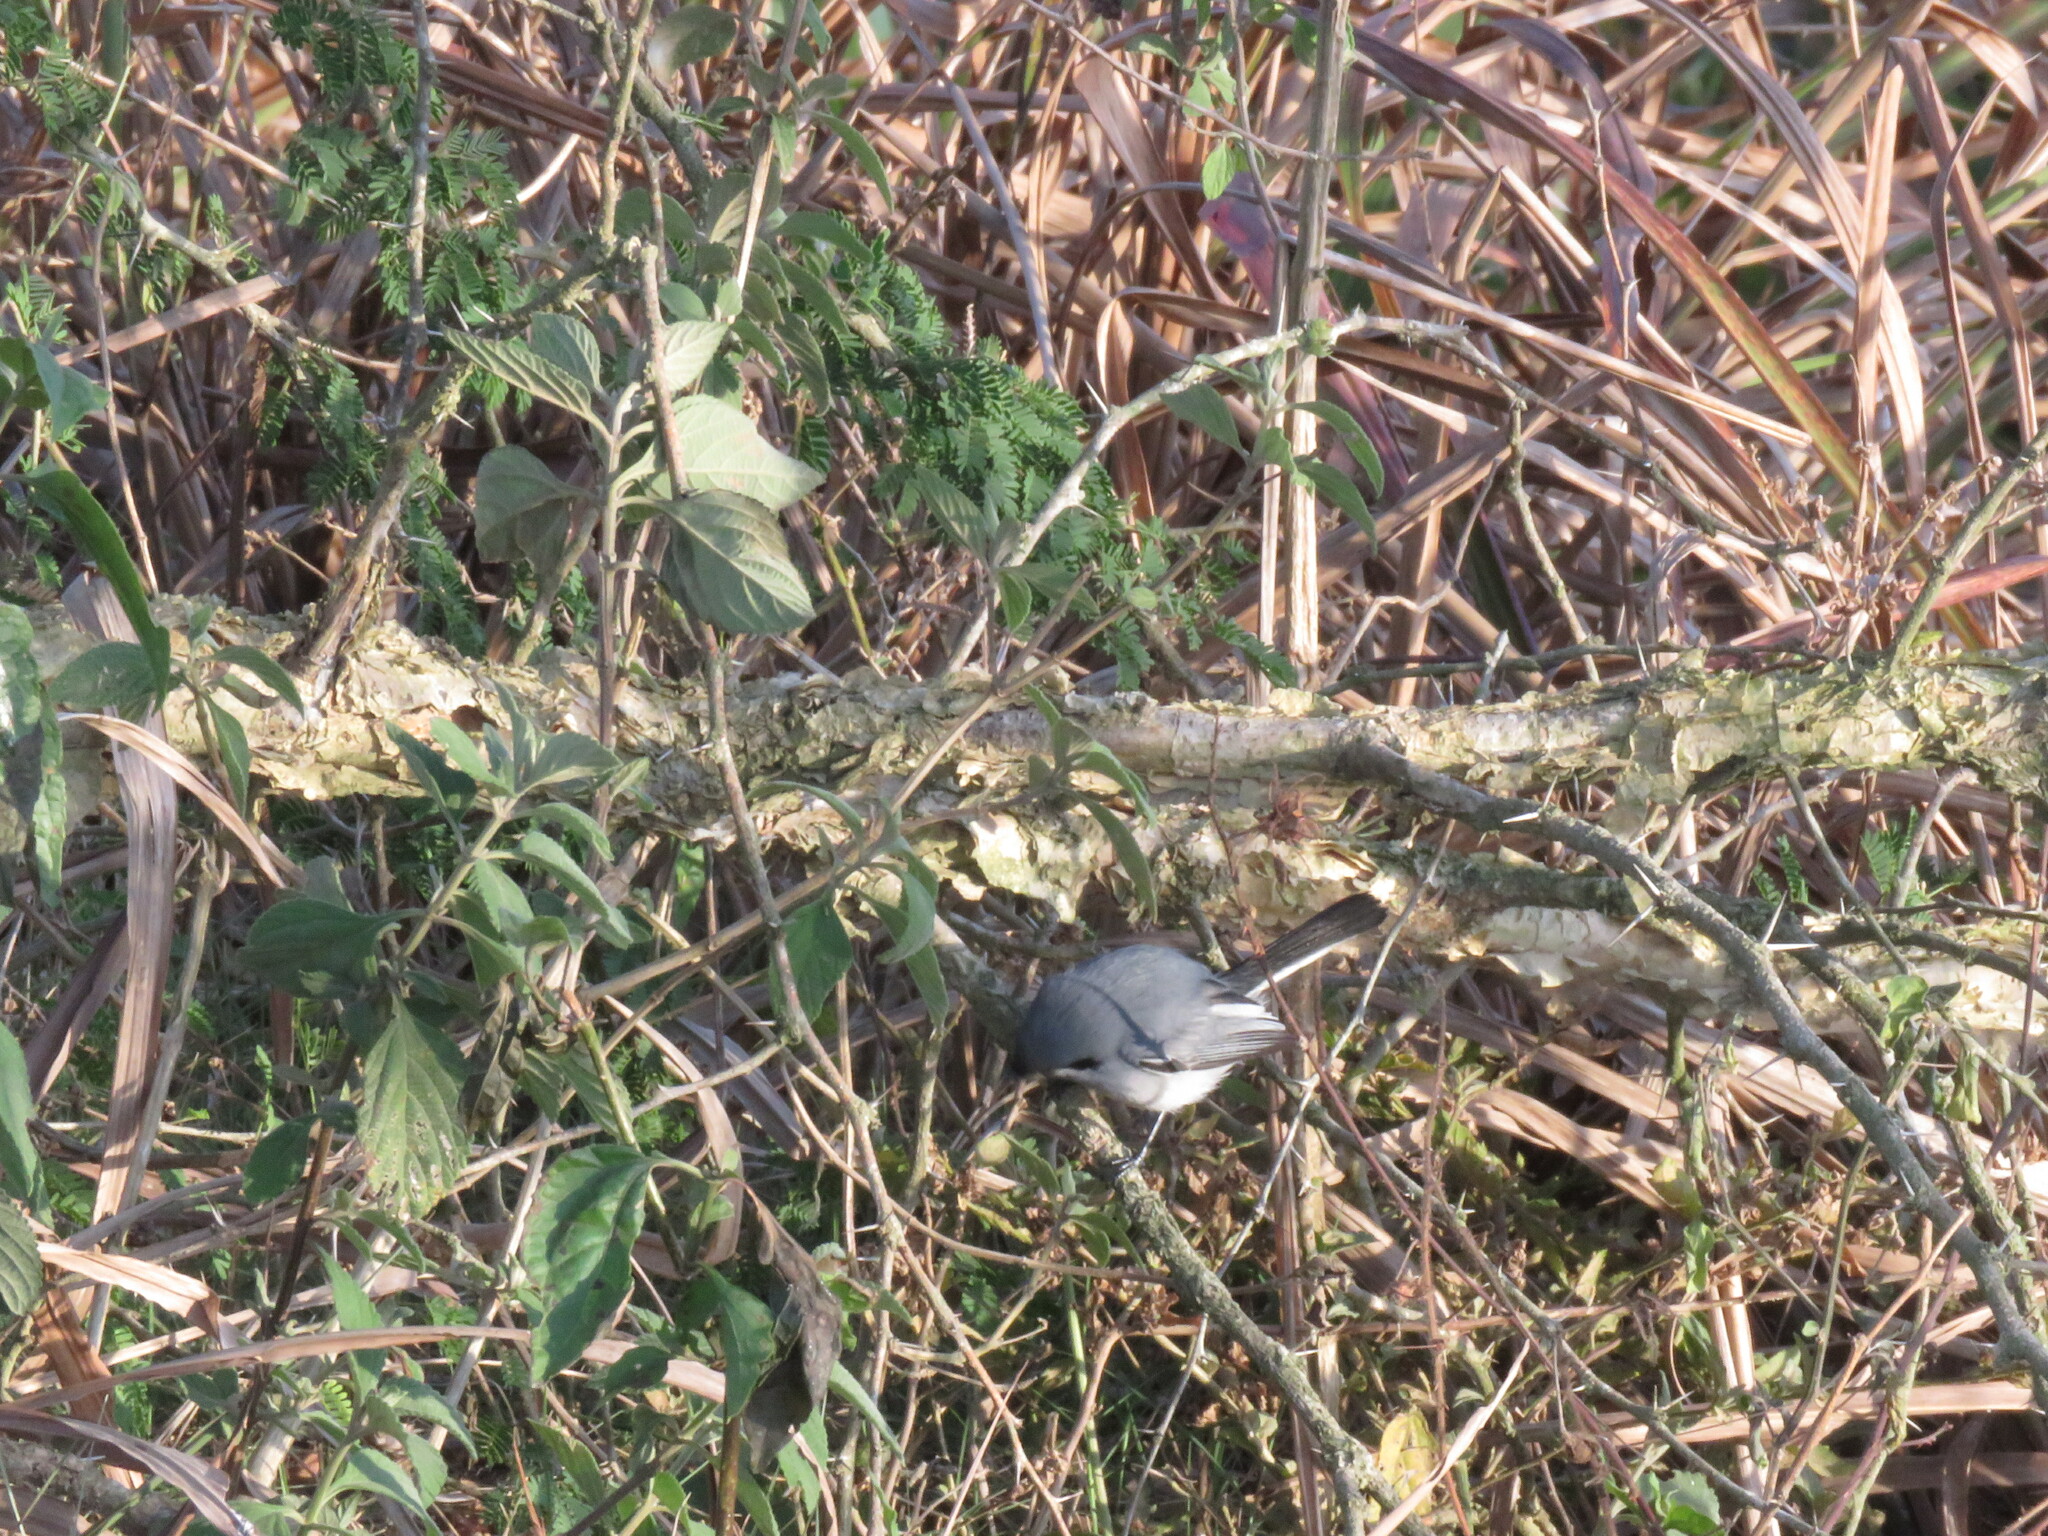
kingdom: Animalia
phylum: Chordata
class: Aves
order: Passeriformes
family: Polioptilidae
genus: Polioptila
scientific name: Polioptila dumicola
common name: Masked gnatcatcher
